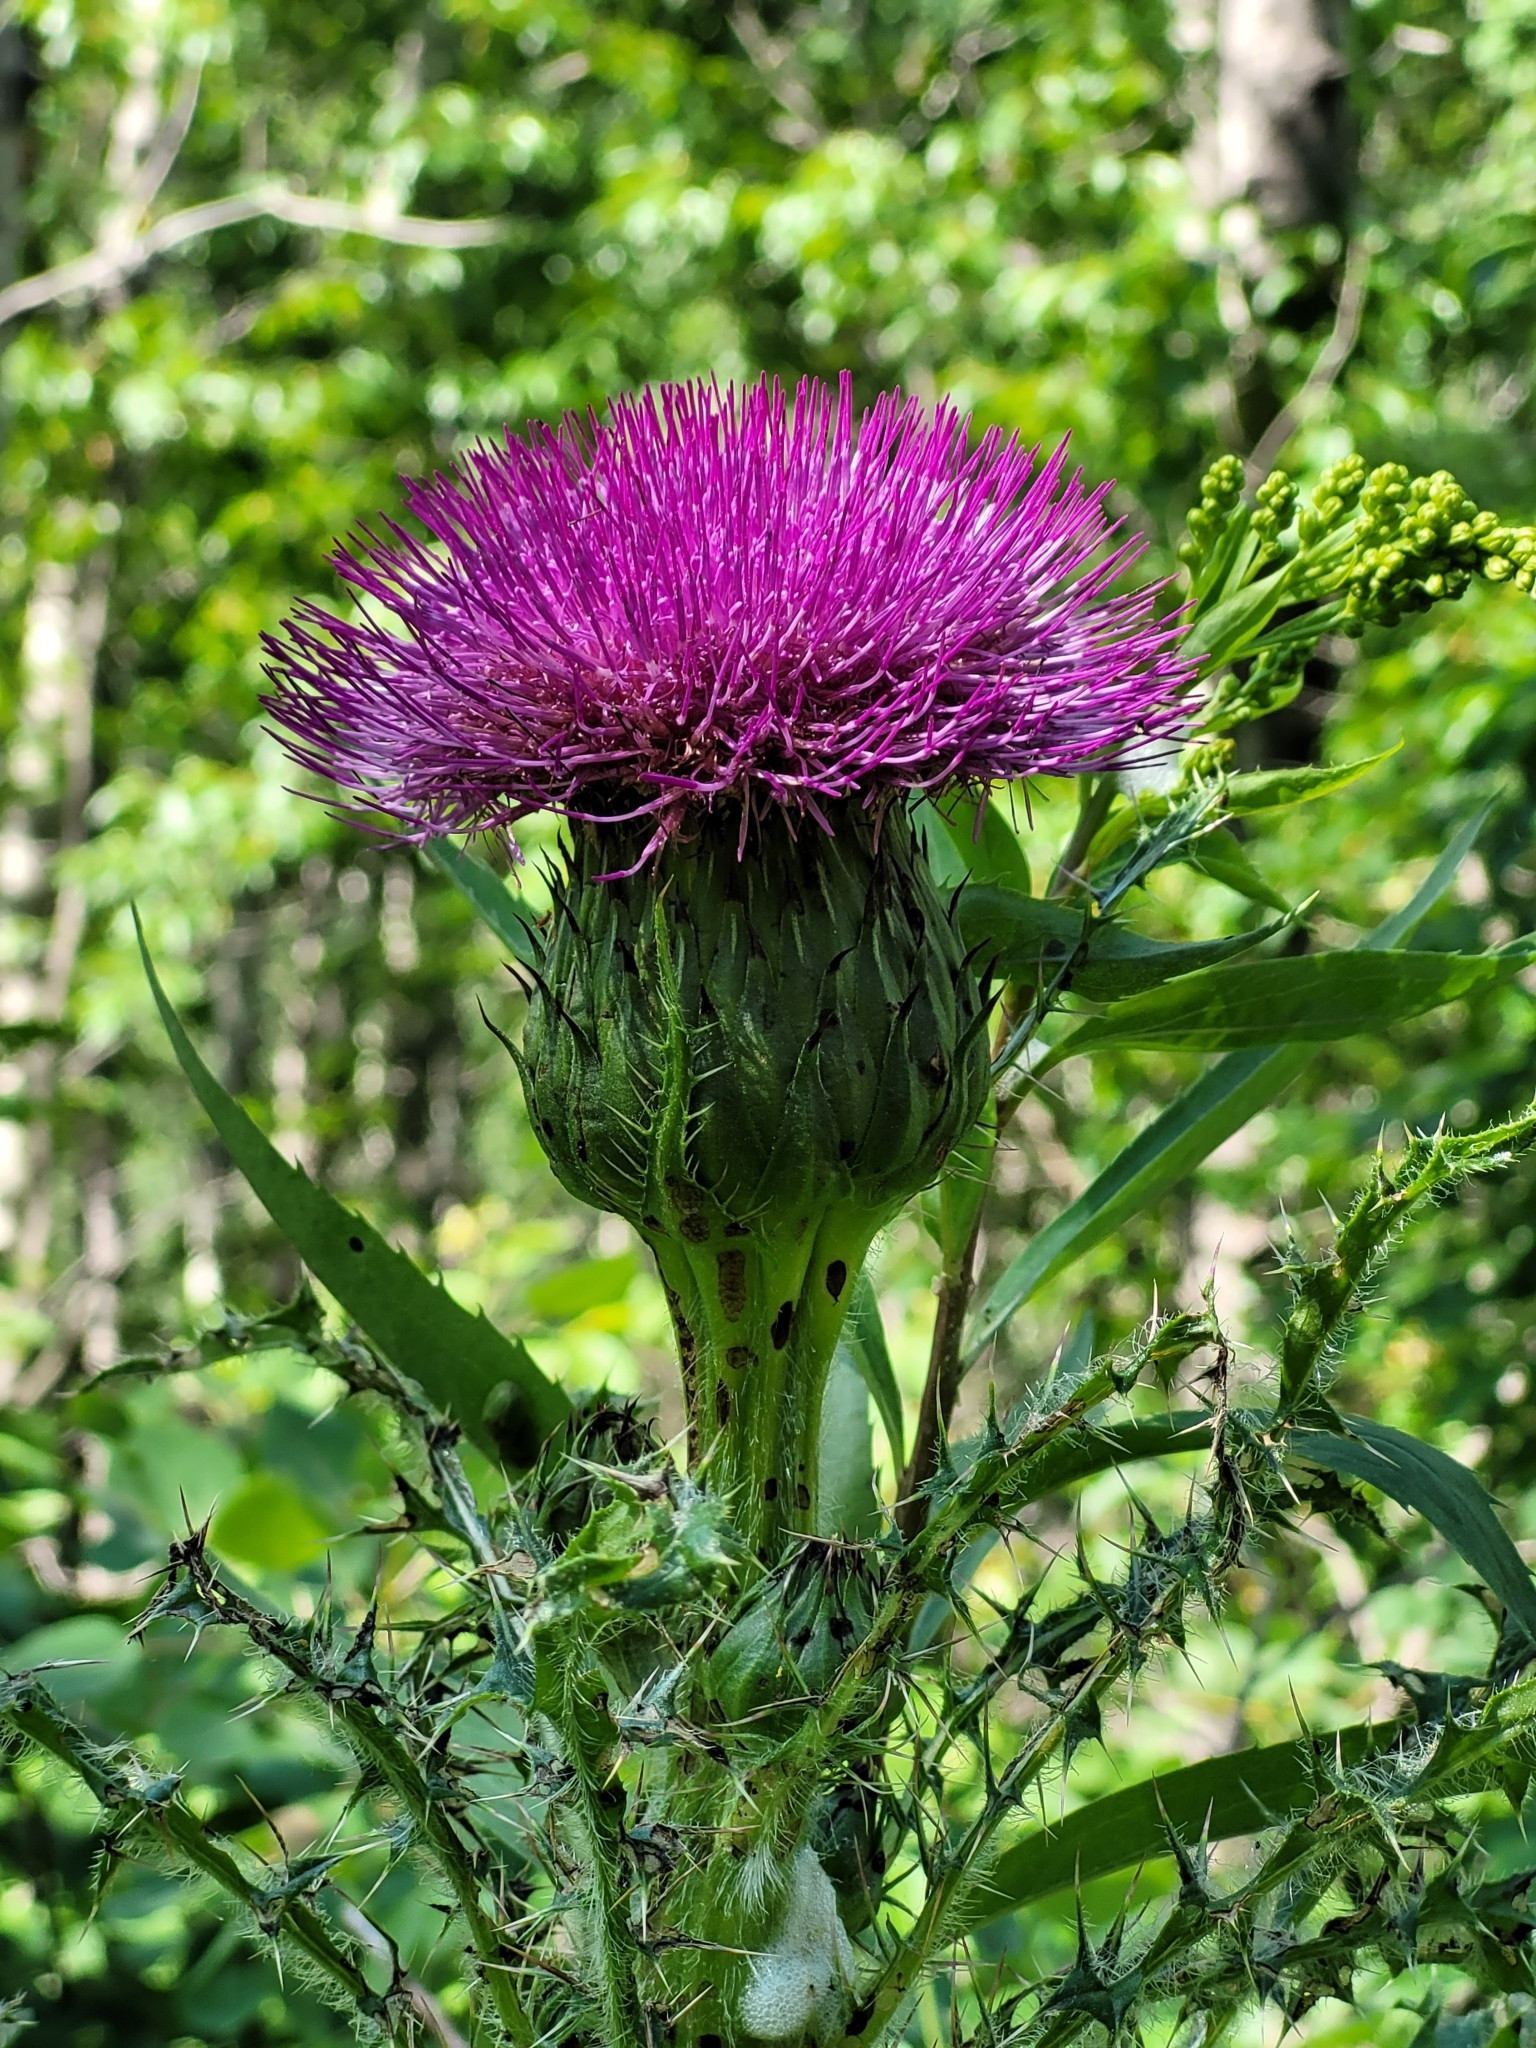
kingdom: Plantae
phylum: Tracheophyta
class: Magnoliopsida
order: Asterales
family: Asteraceae
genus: Cirsium
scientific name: Cirsium drummondii
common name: Drummond's thistle
